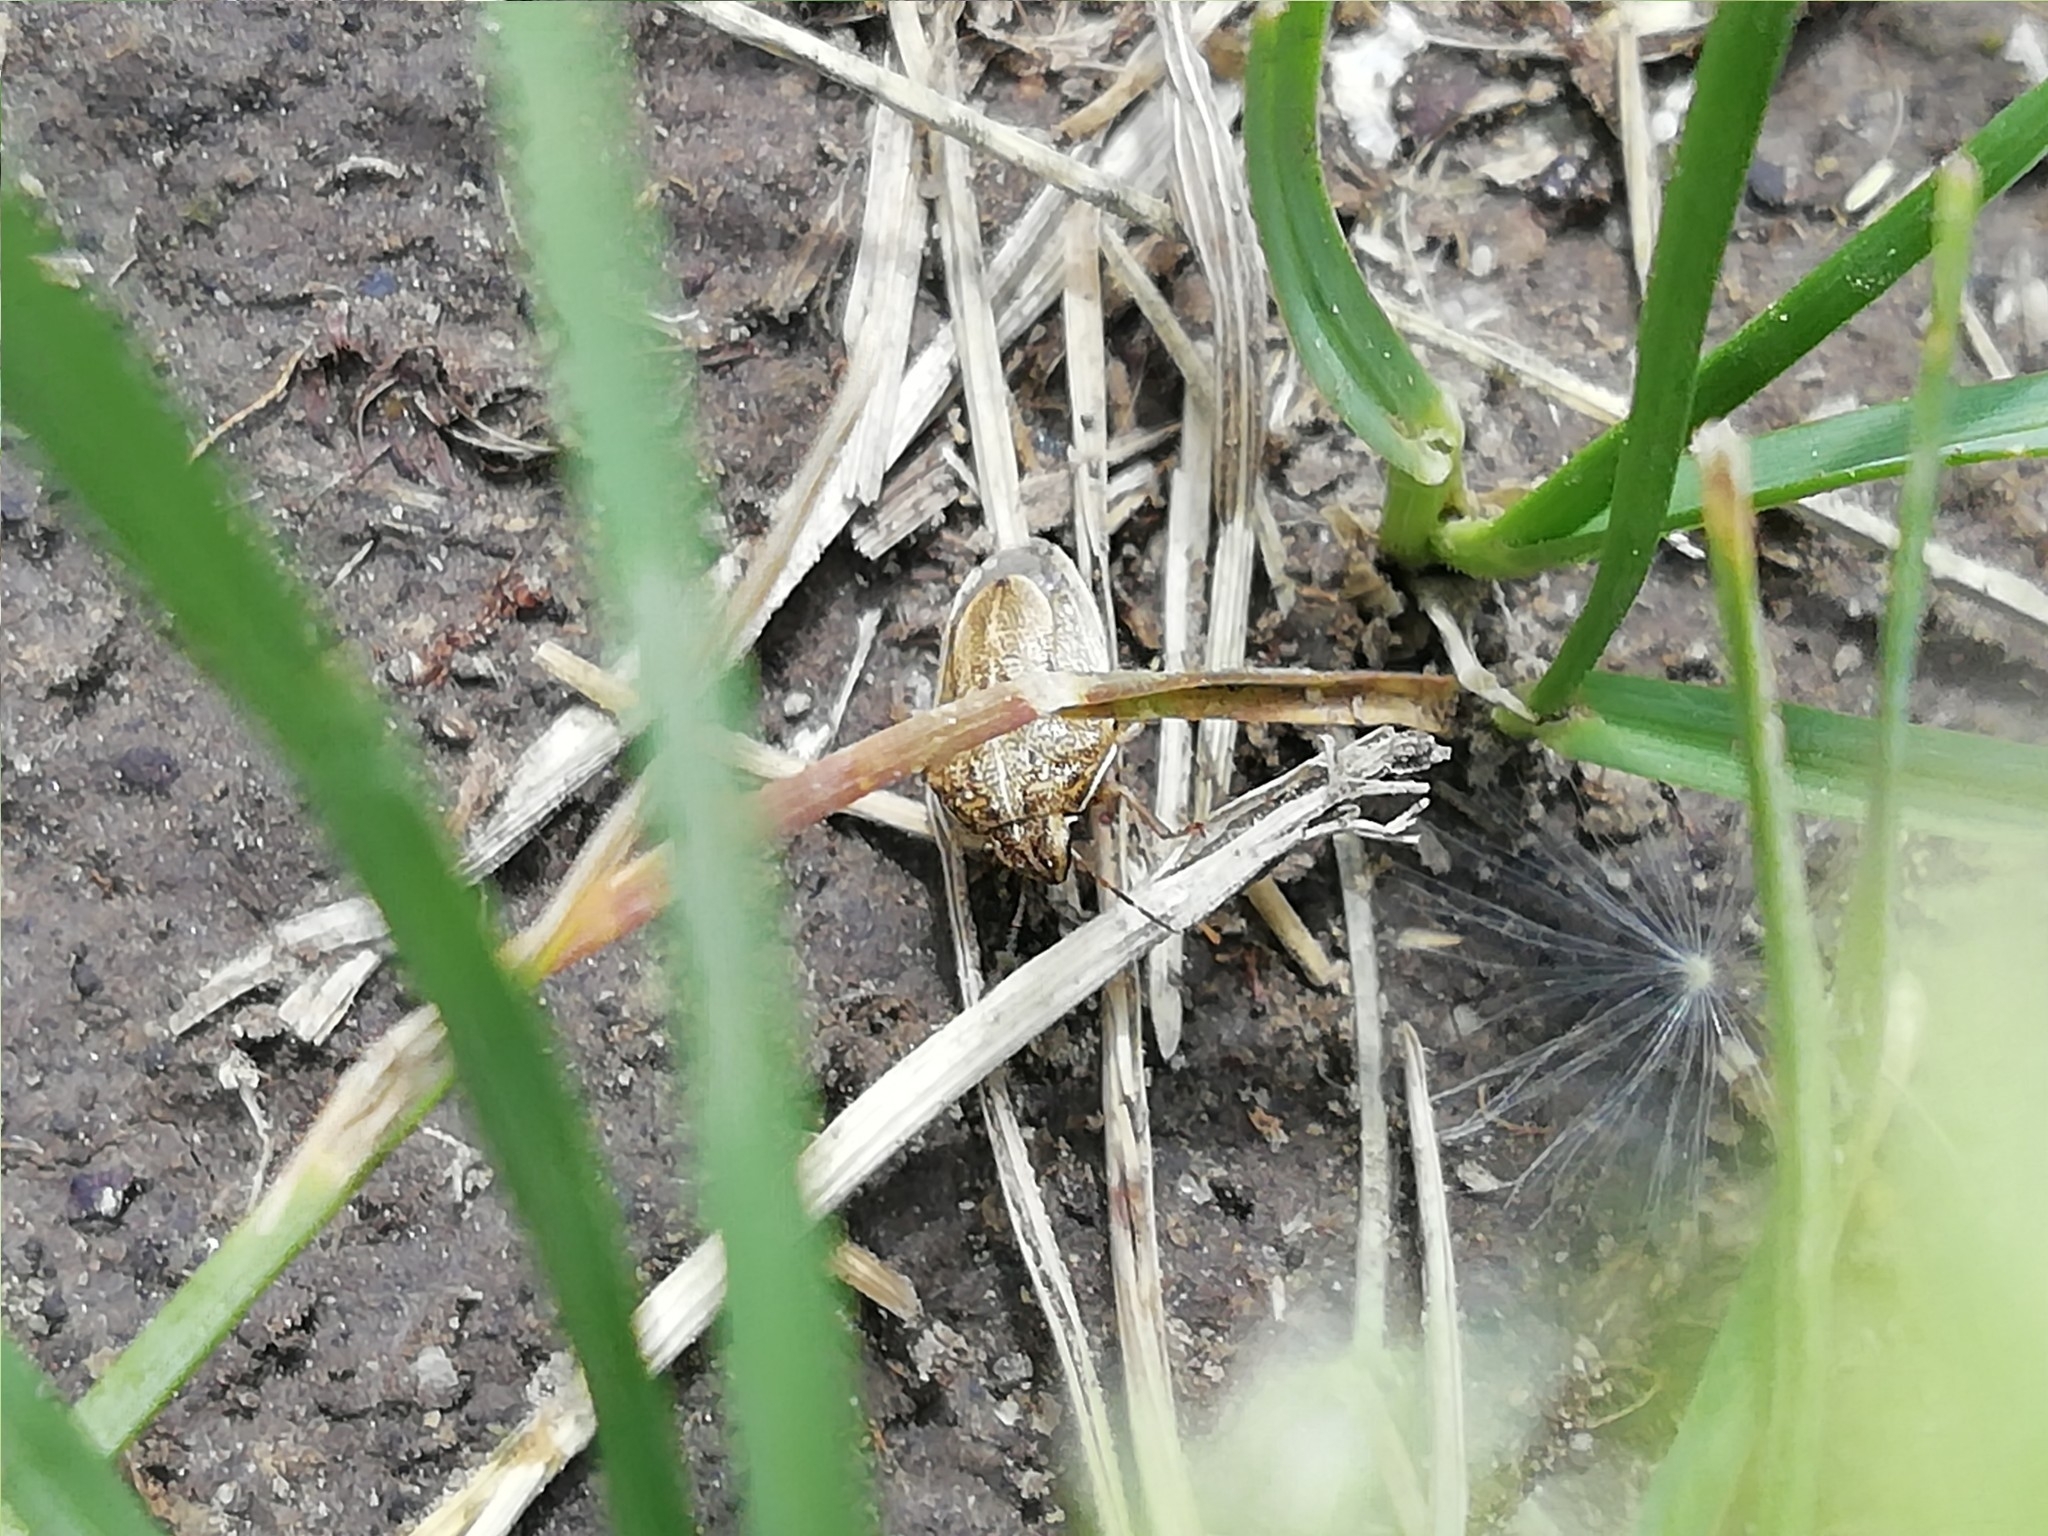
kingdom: Animalia
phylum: Arthropoda
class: Insecta
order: Hemiptera
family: Pentatomidae
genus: Neottiglossa
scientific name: Neottiglossa leporina
